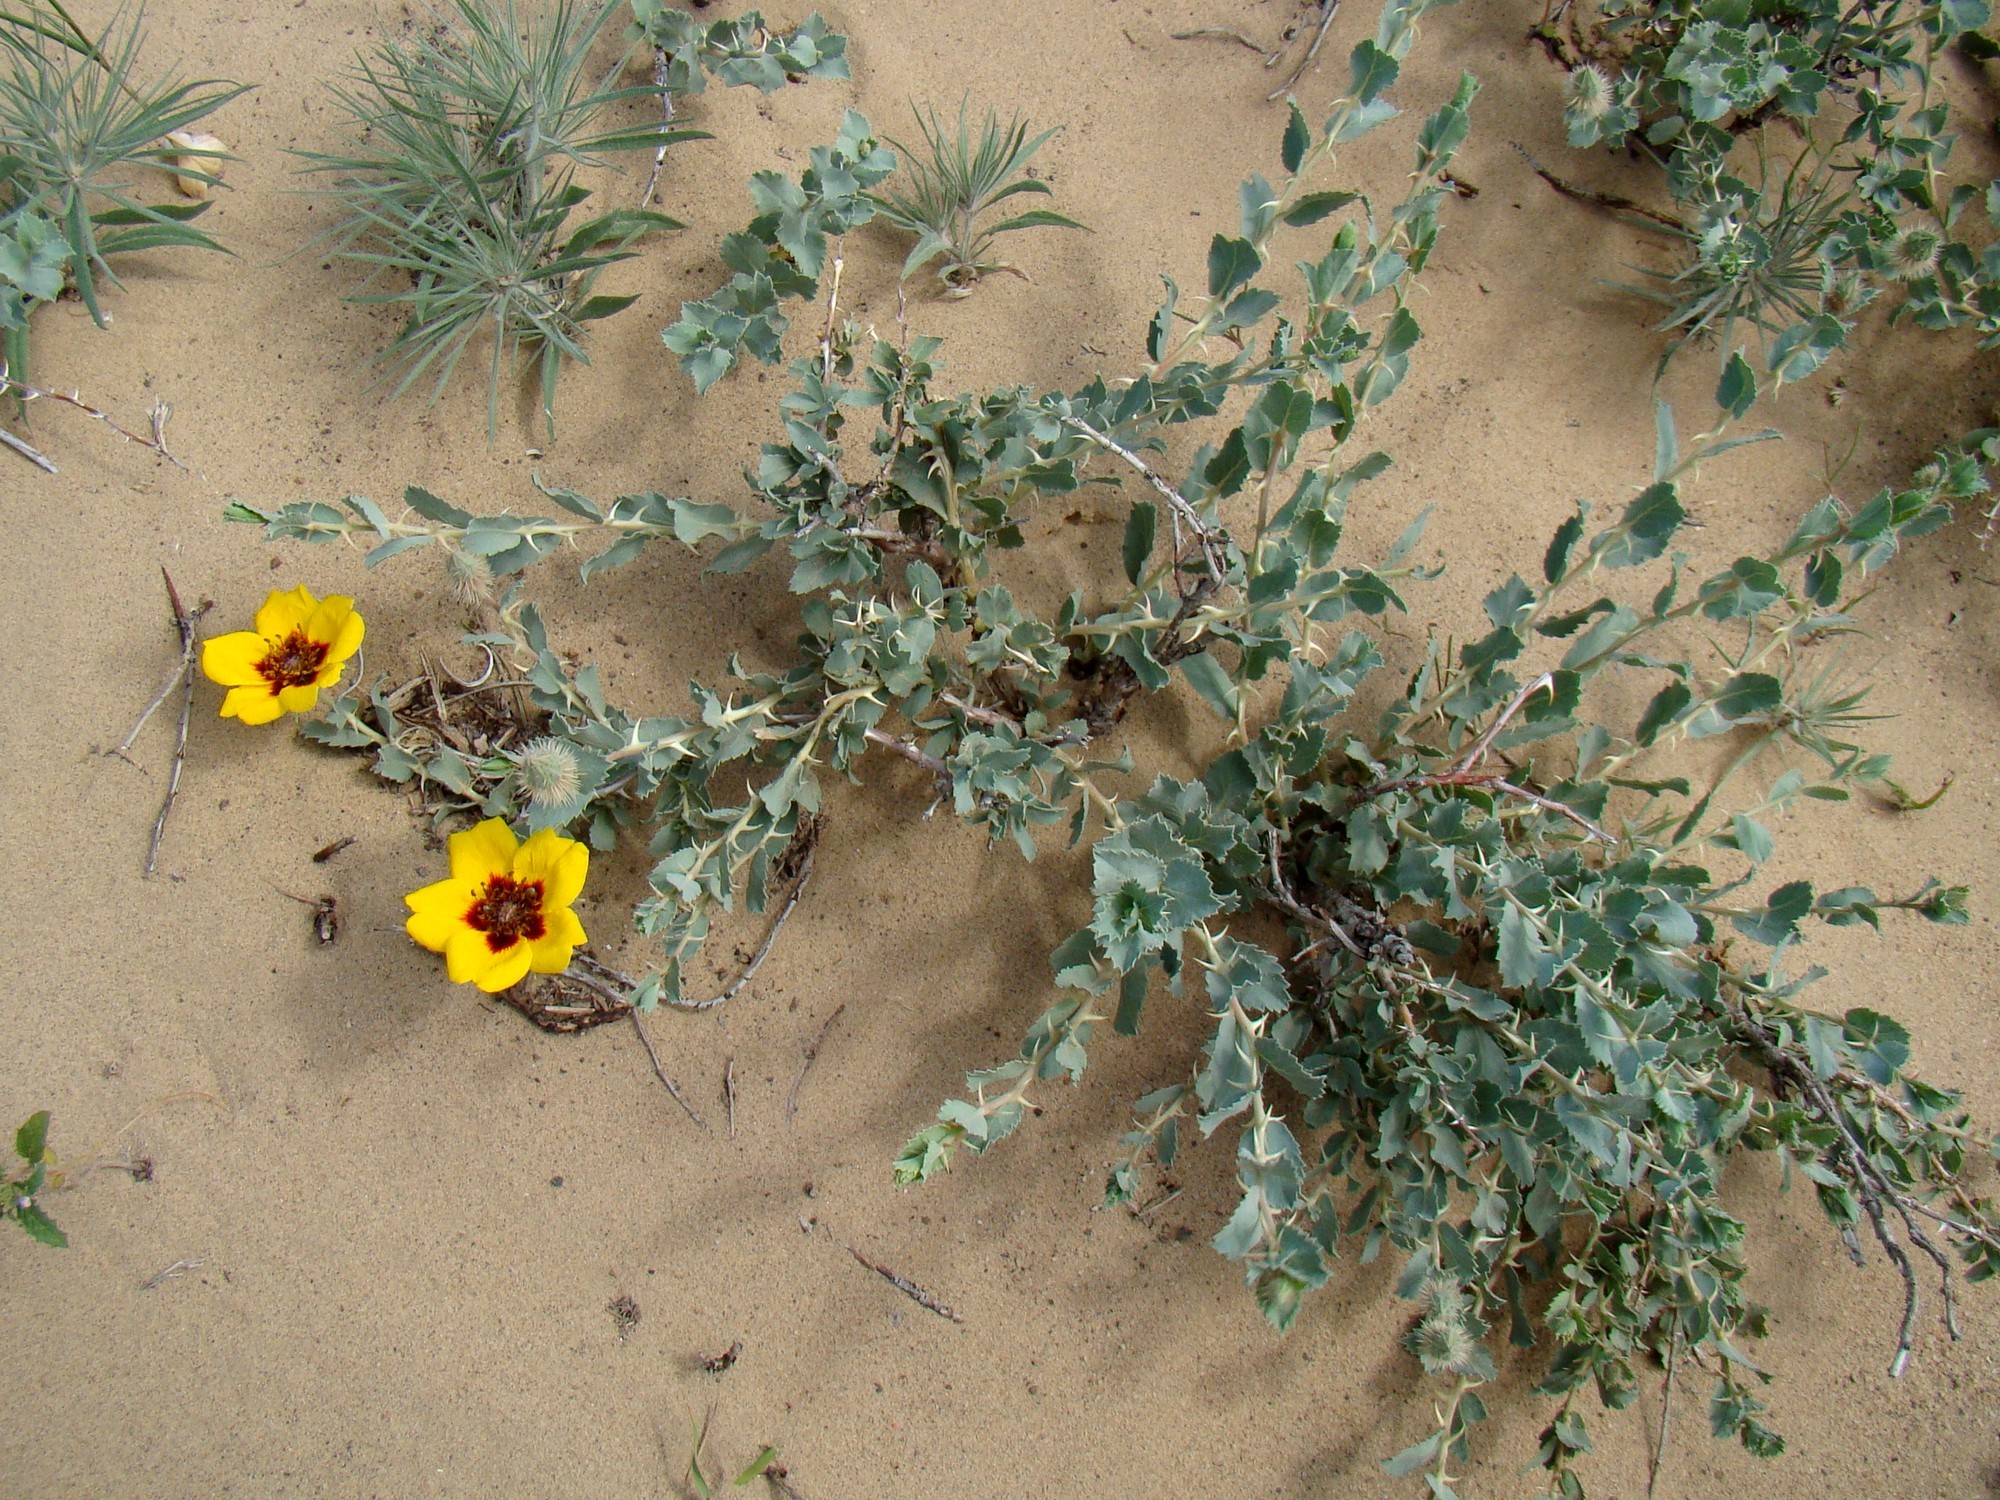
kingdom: Plantae
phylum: Tracheophyta
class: Magnoliopsida
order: Rosales
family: Rosaceae
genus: Rosa
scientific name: Rosa persica
